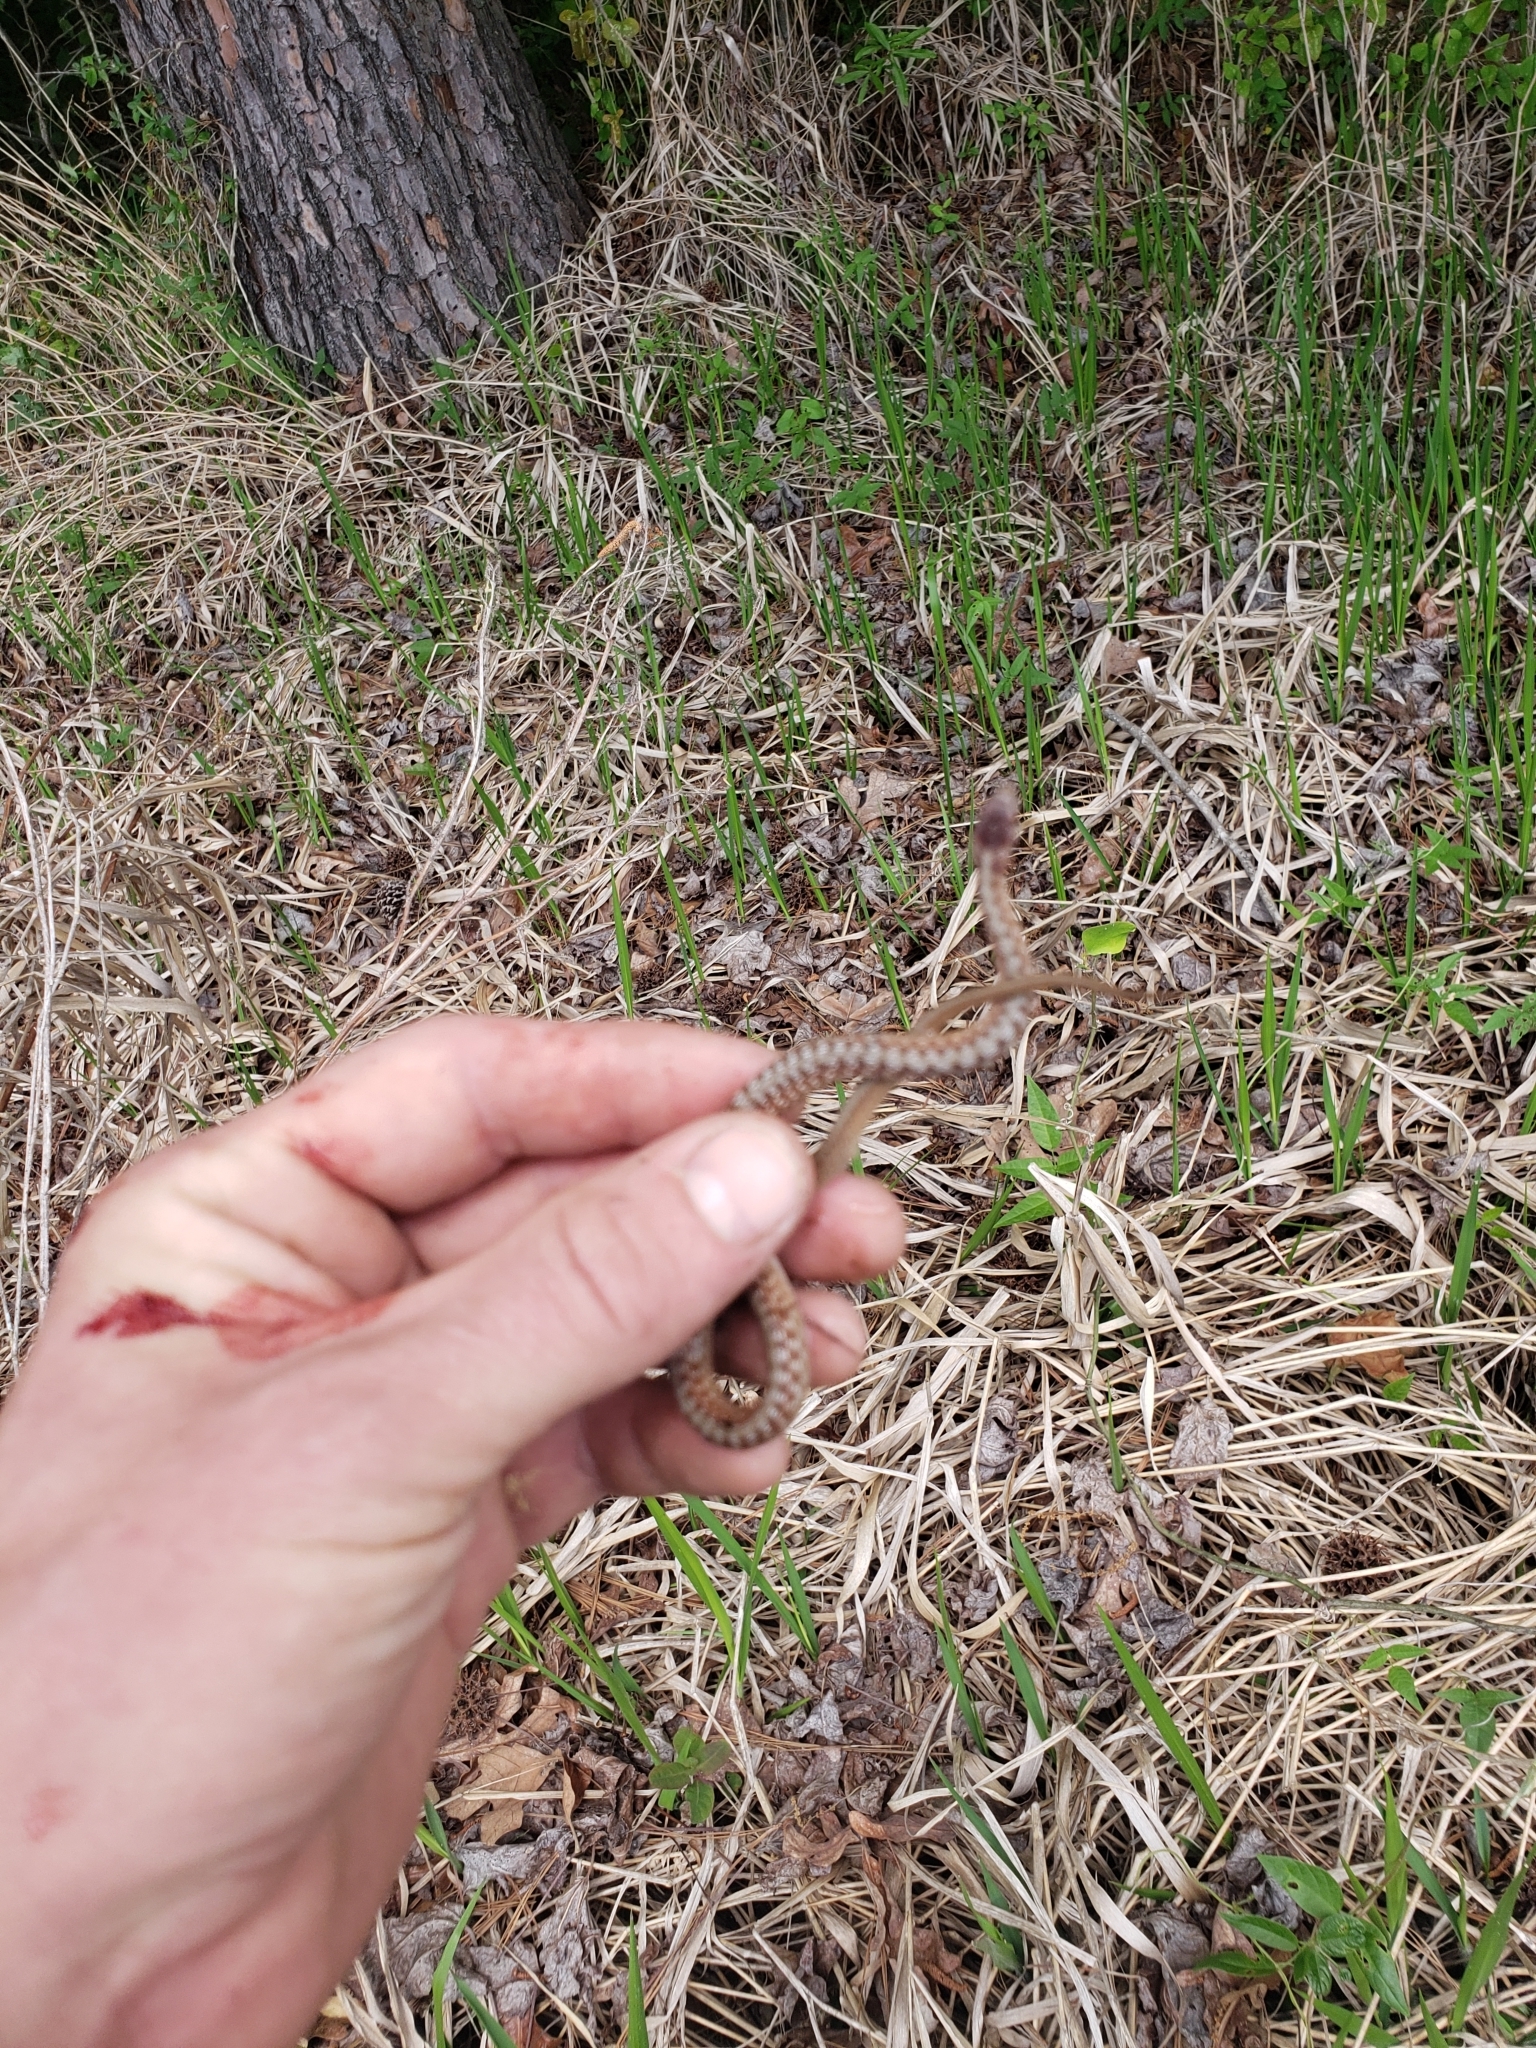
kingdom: Animalia
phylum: Chordata
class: Squamata
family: Colubridae
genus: Storeria
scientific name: Storeria dekayi
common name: (dekay’s) brown snake
